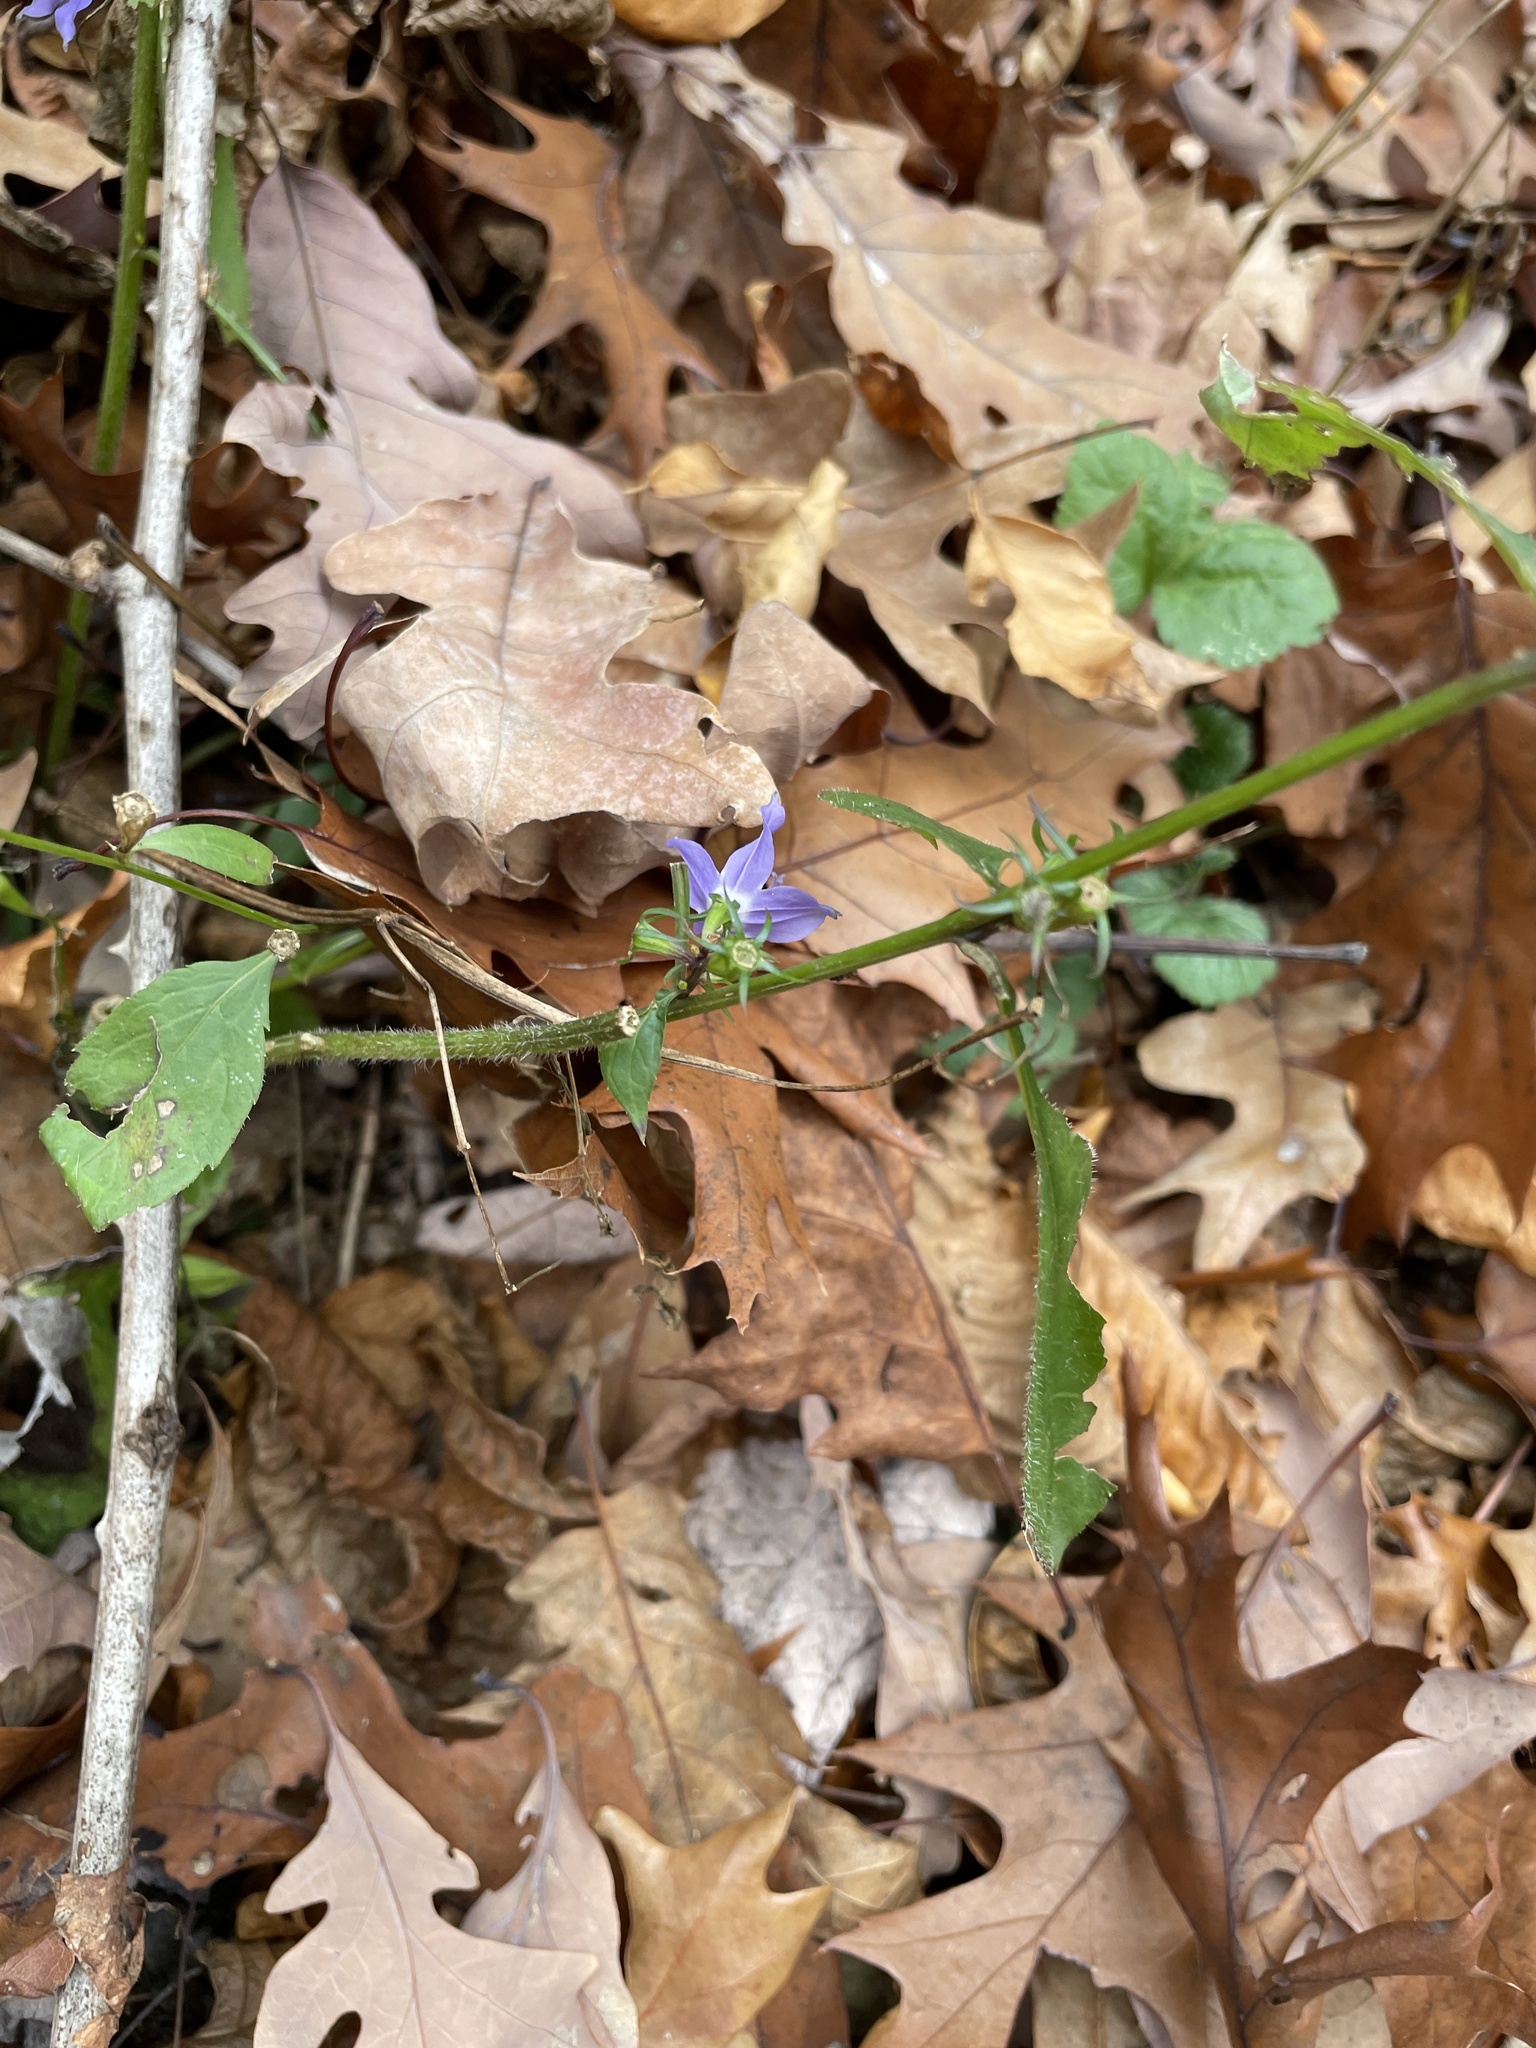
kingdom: Plantae
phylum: Tracheophyta
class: Magnoliopsida
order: Asterales
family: Campanulaceae
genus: Campanulastrum
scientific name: Campanulastrum americanum
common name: American bellflower
